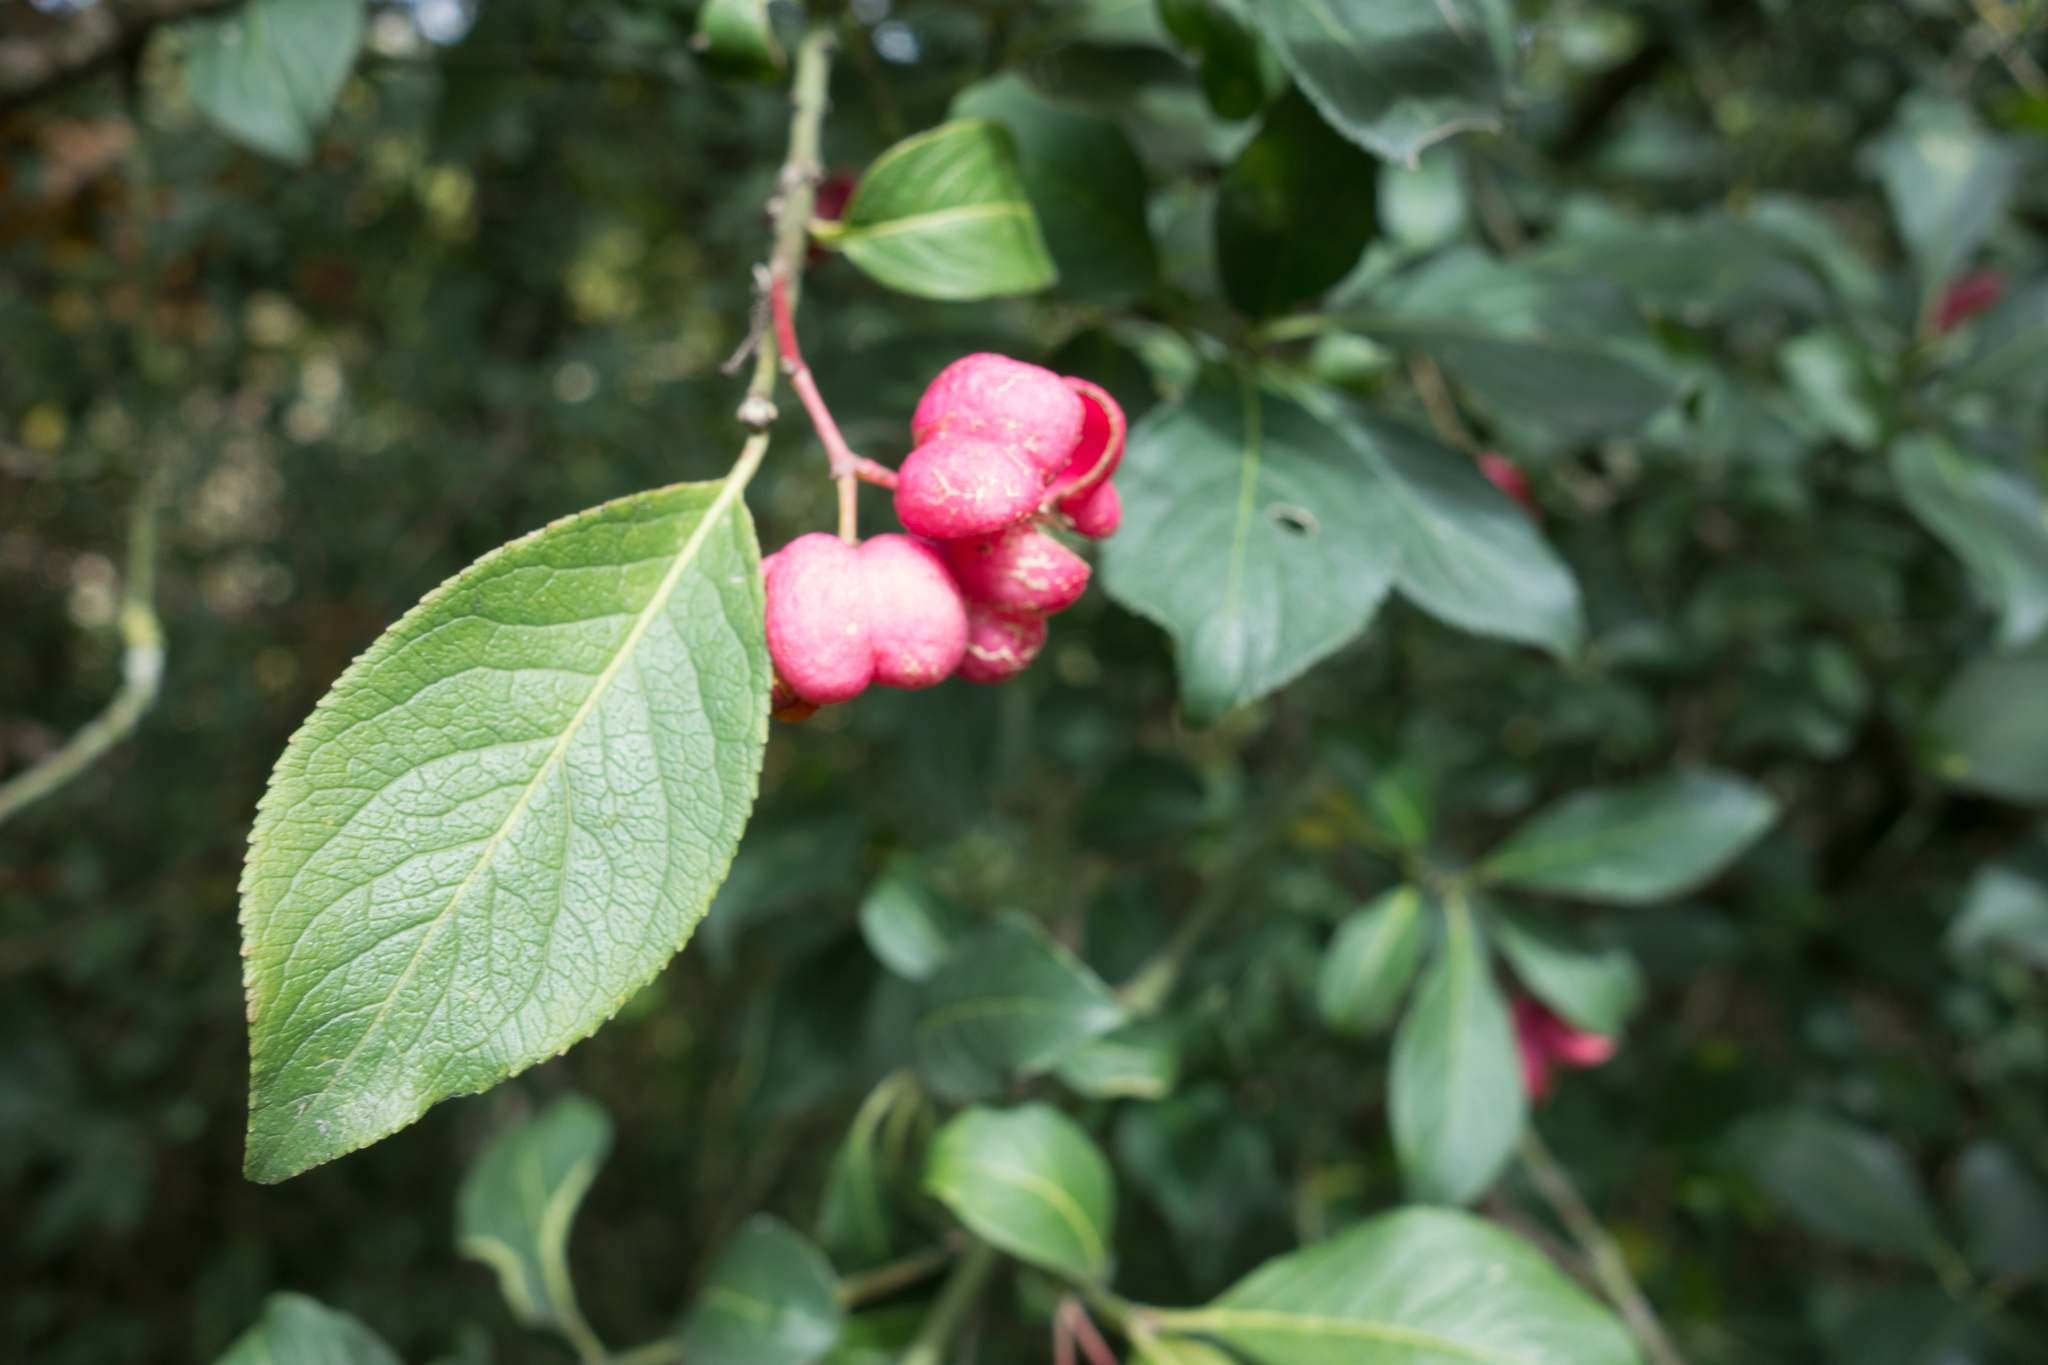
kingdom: Plantae
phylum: Tracheophyta
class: Magnoliopsida
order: Celastrales
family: Celastraceae
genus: Euonymus
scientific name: Euonymus europaeus
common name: Spindle
